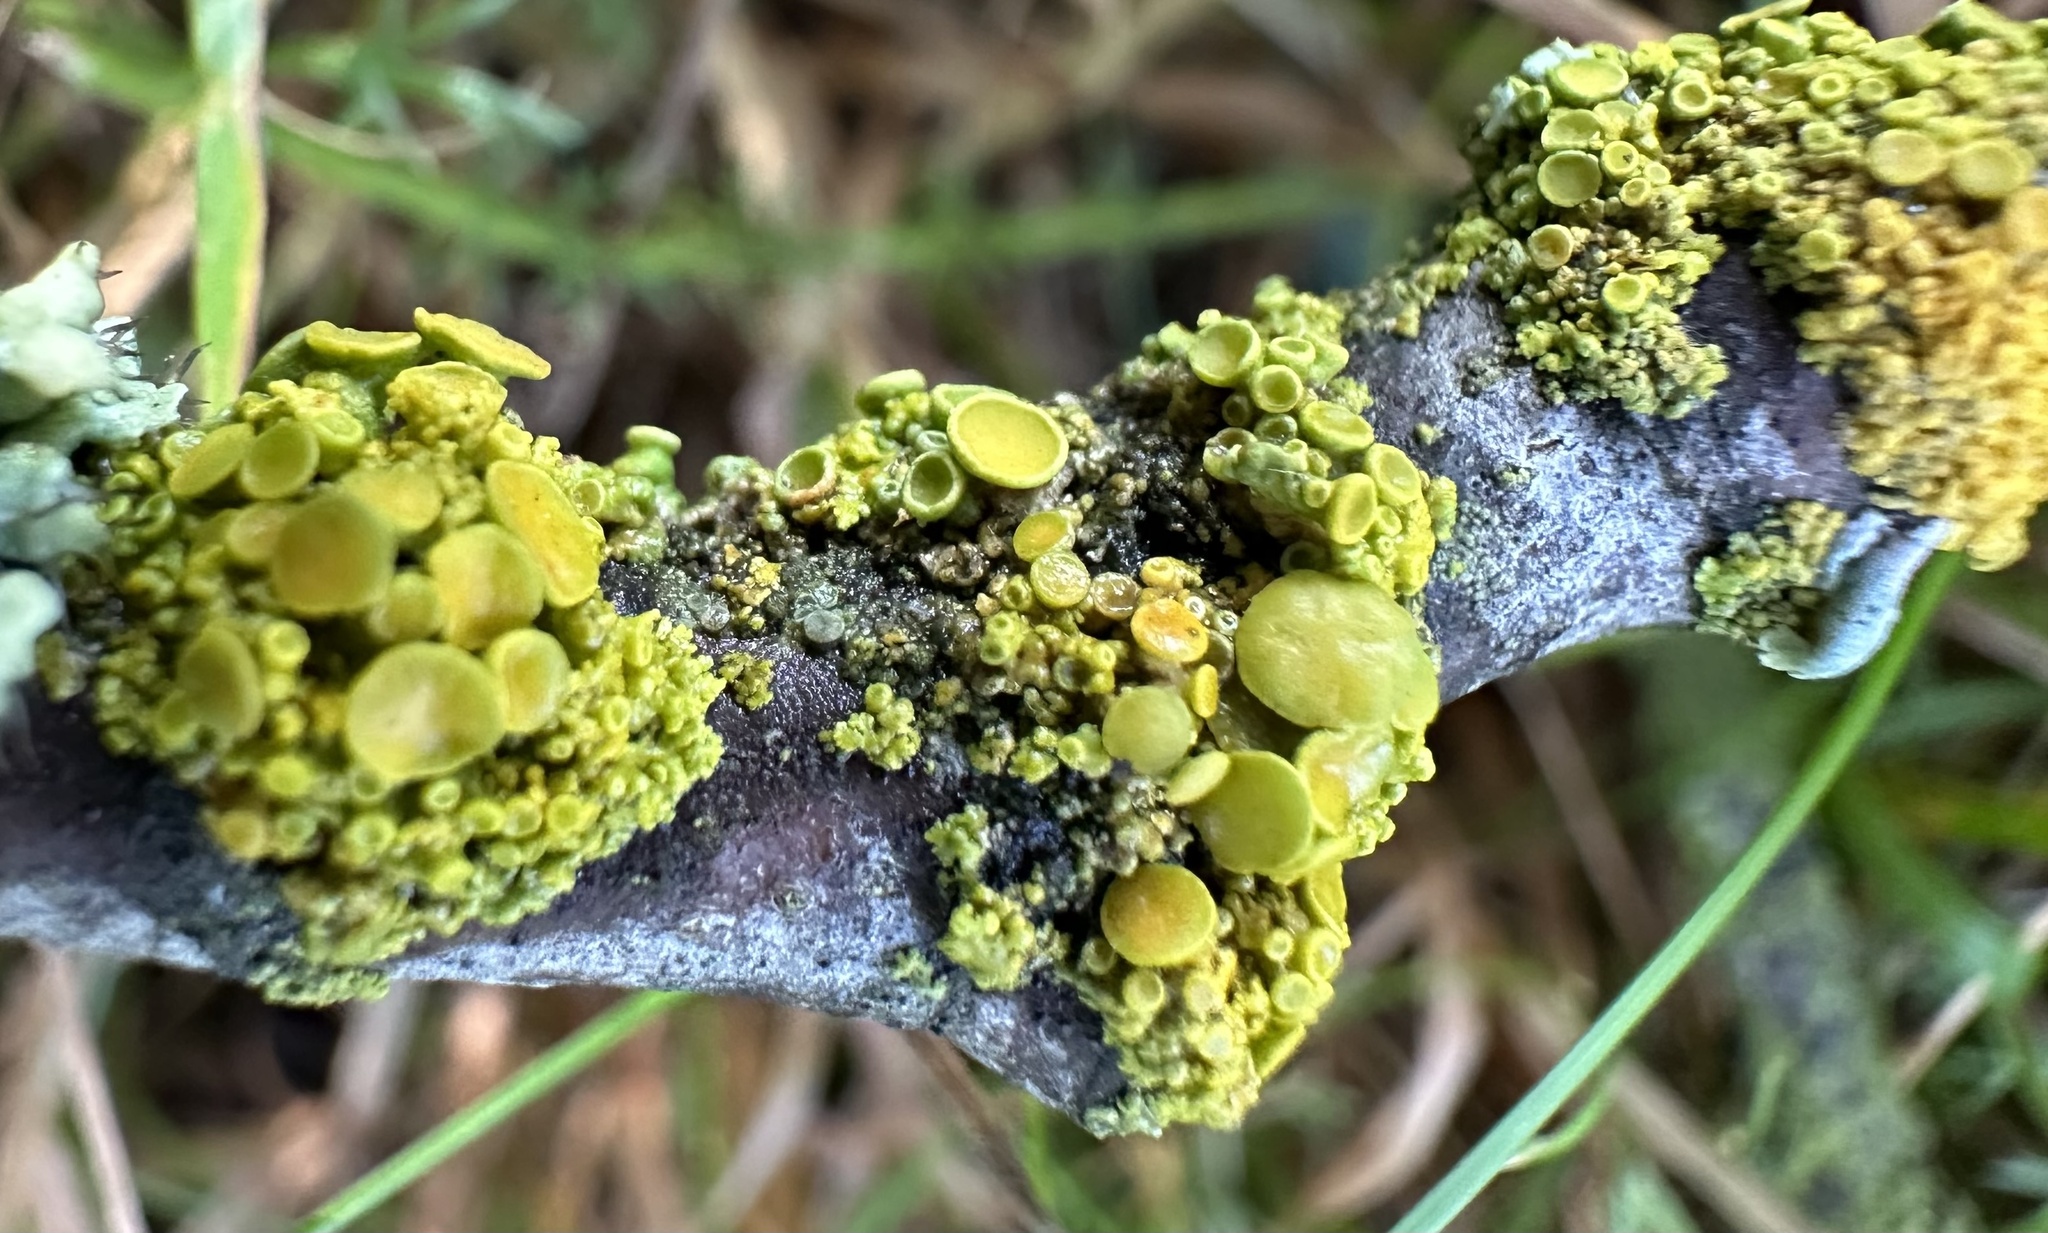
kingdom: Fungi
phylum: Ascomycota
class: Lecanoromycetes
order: Teloschistales
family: Teloschistaceae
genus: Polycauliona
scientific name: Polycauliona polycarpa
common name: Pin-cushion sunburst lichen
